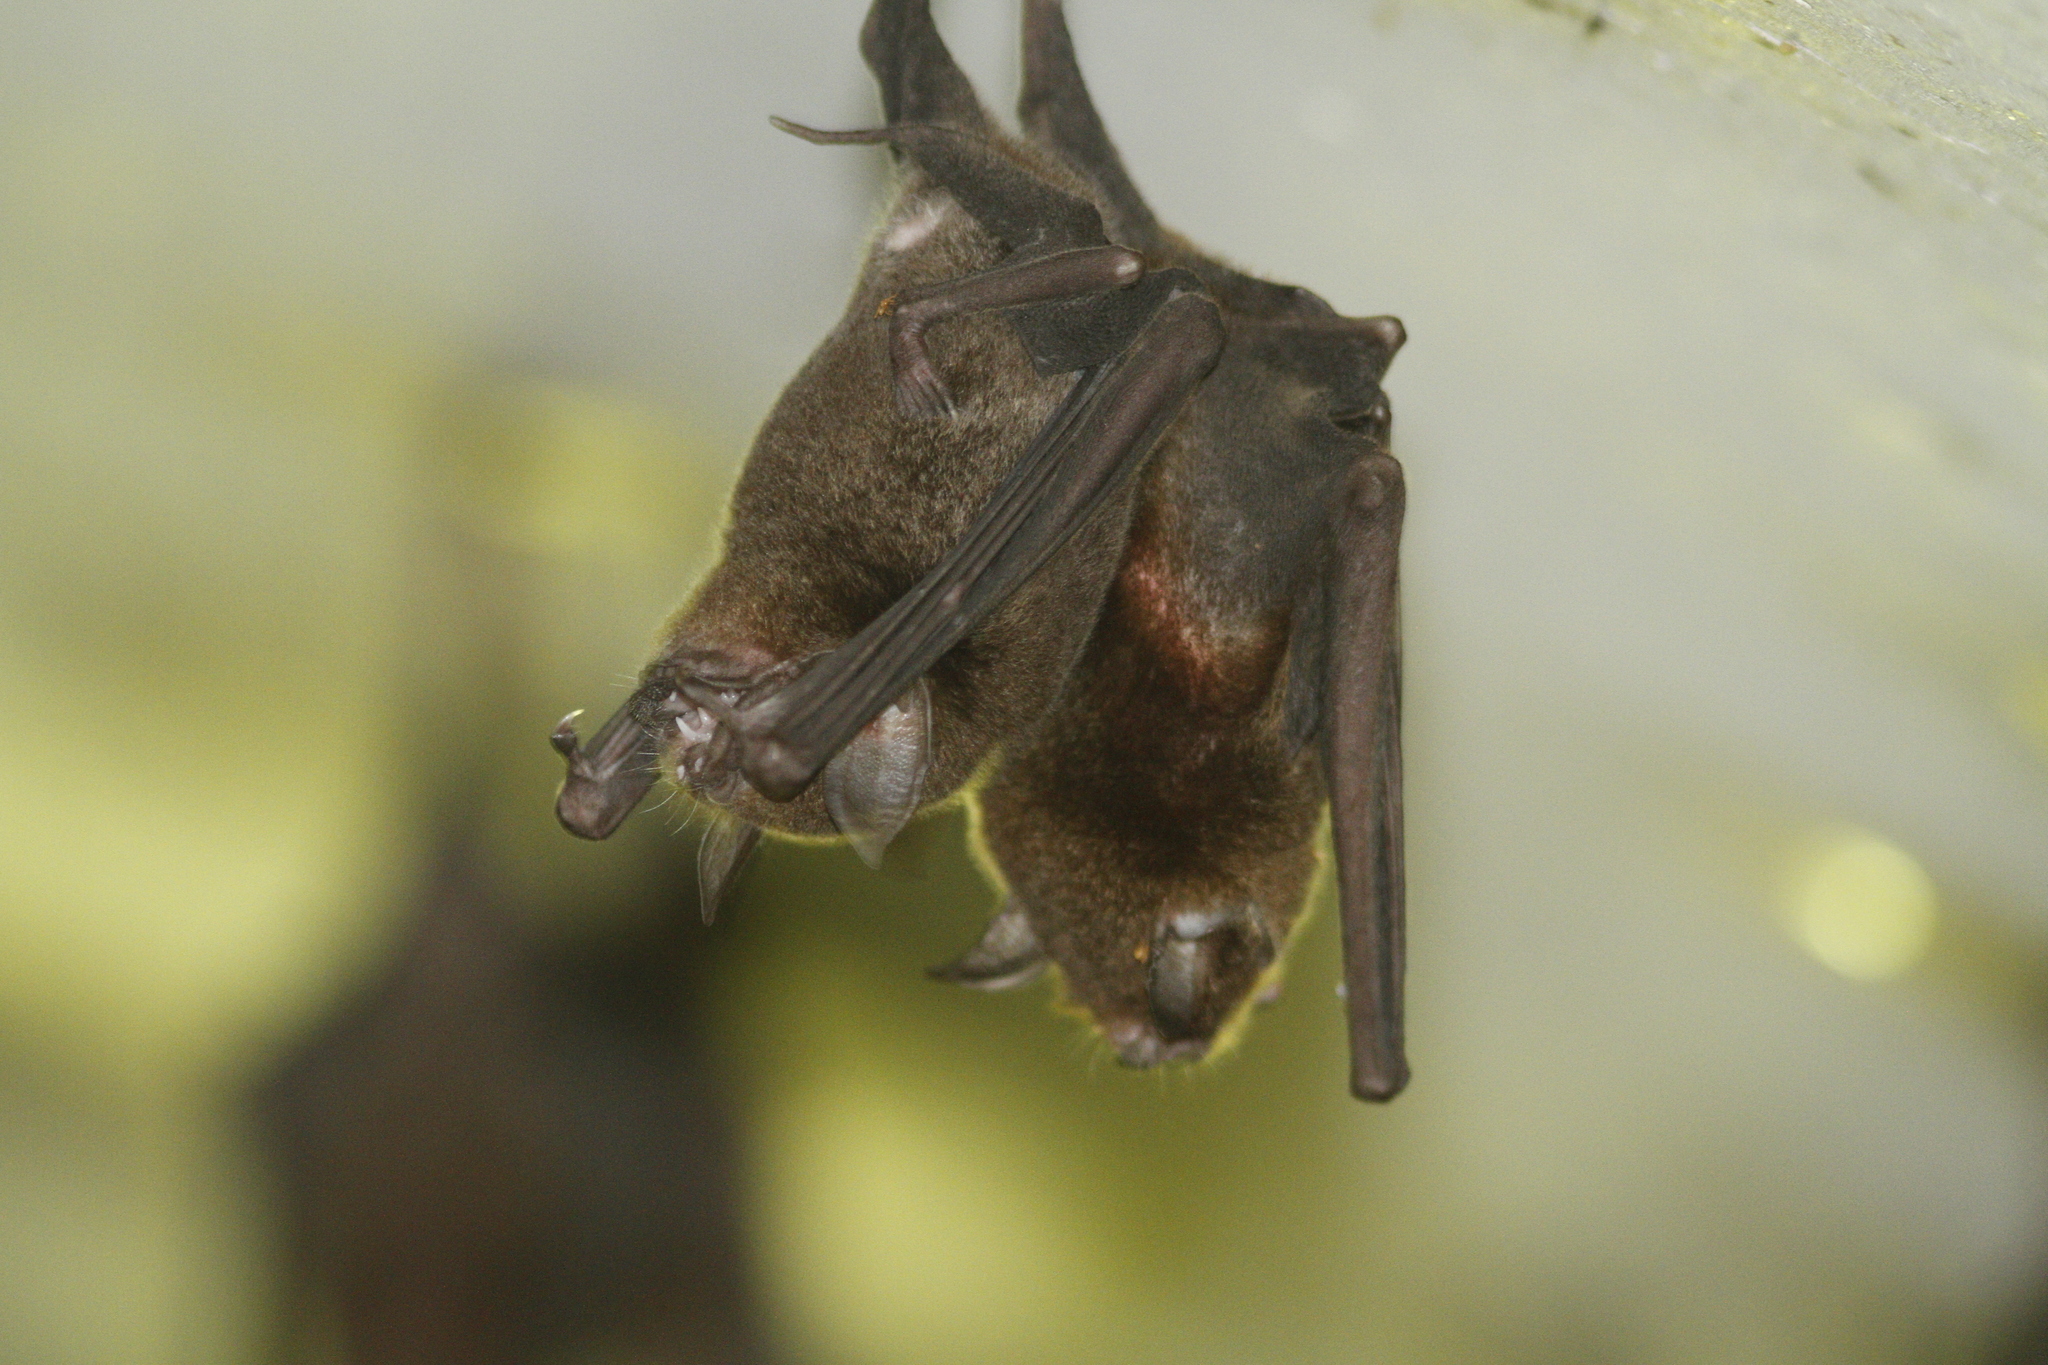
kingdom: Animalia
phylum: Chordata
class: Mammalia
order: Chiroptera
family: Mormoopidae
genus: Pteronotus
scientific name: Pteronotus
